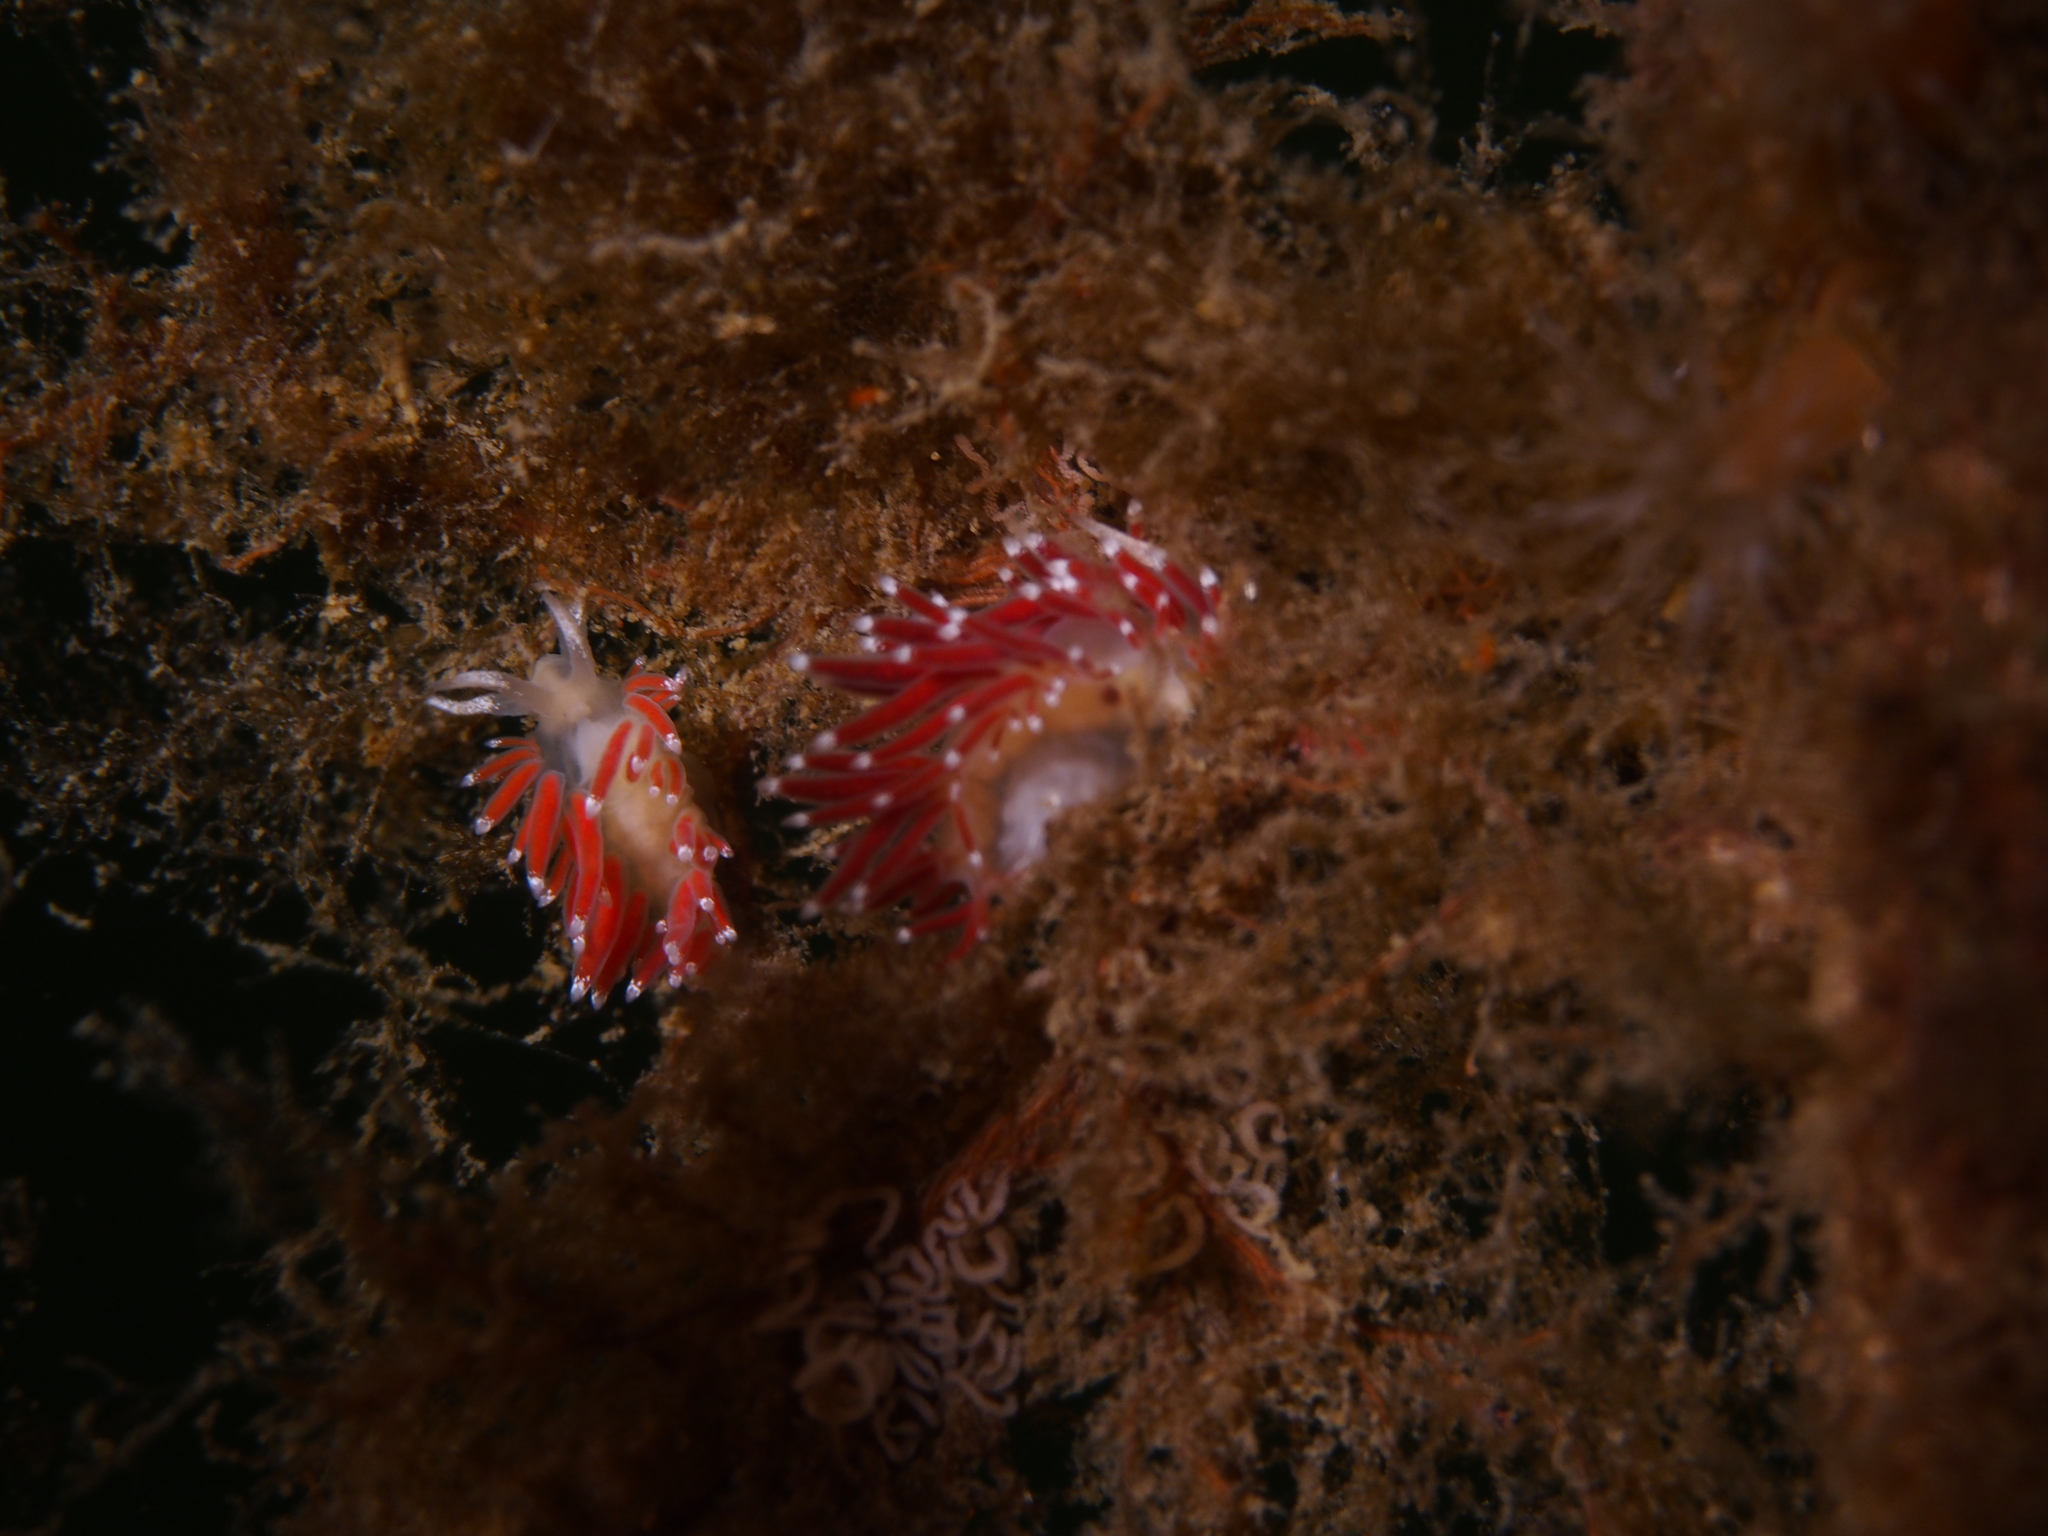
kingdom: Animalia
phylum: Mollusca
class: Gastropoda
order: Nudibranchia
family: Coryphellidae
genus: Coryphella
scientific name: Coryphella gracilis
